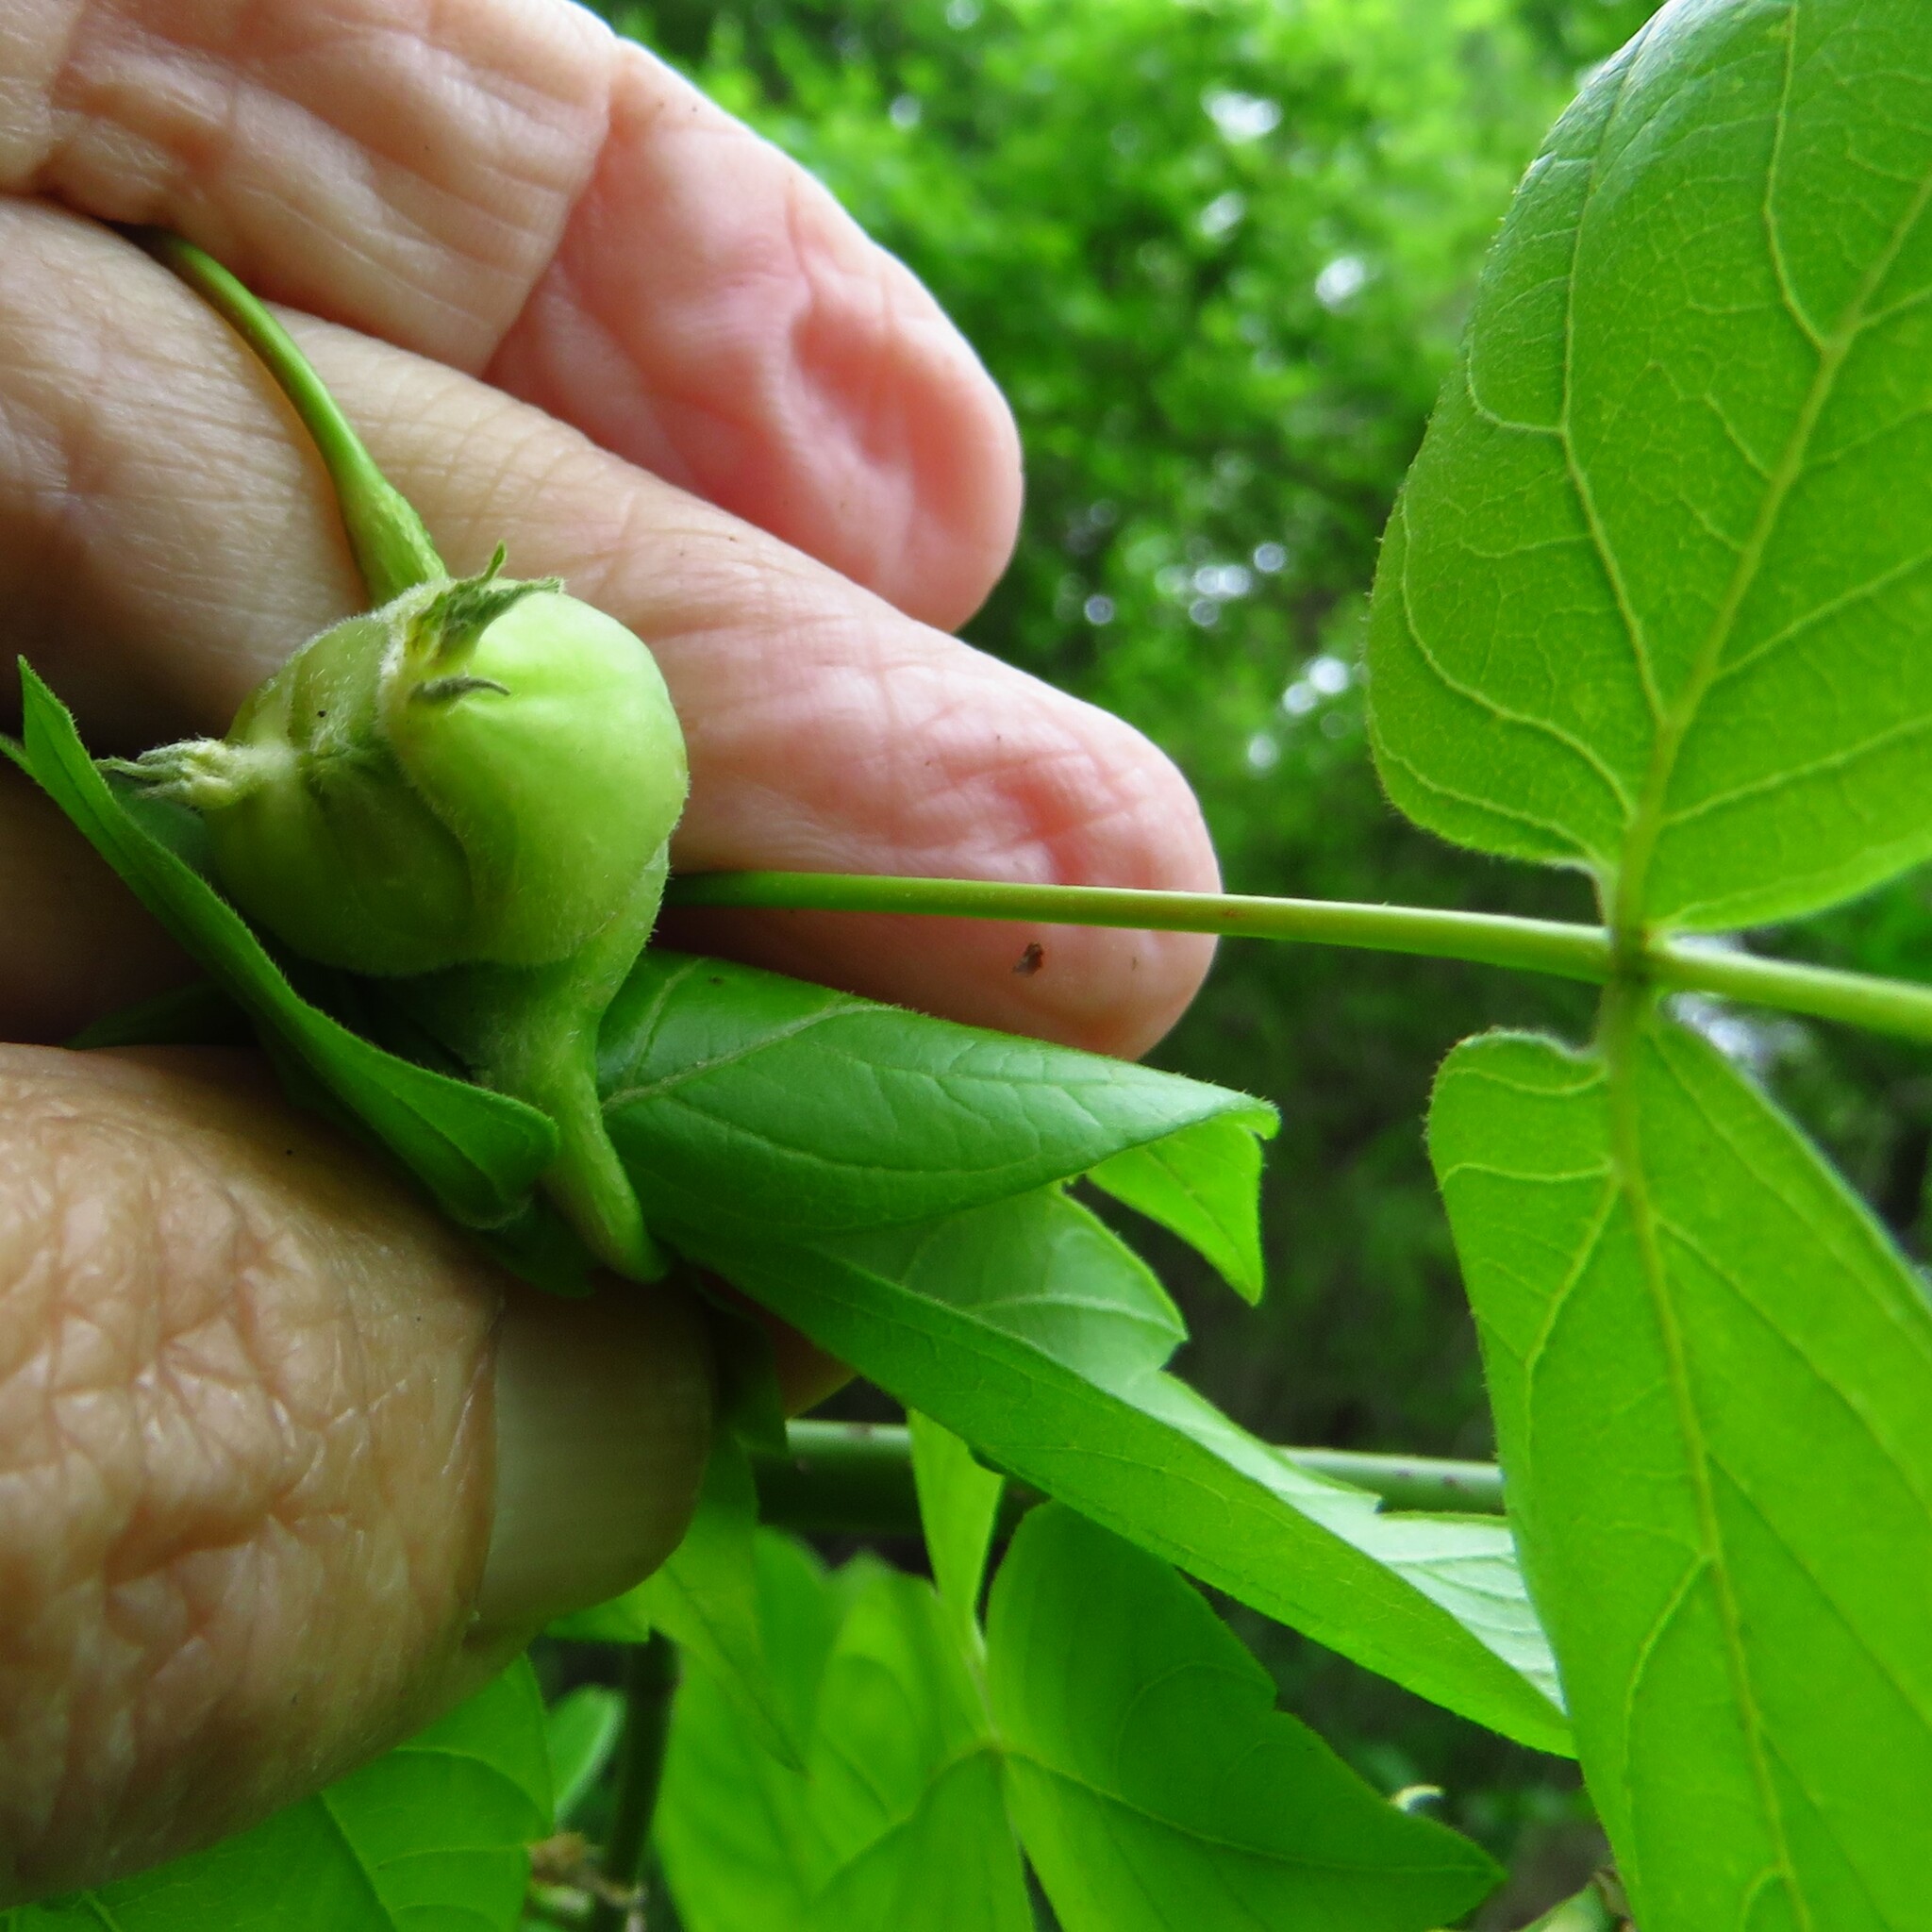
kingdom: Animalia
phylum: Arthropoda
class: Insecta
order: Diptera
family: Cecidomyiidae
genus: Contarinia
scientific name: Contarinia negundinis
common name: Boxelder budgall midge
